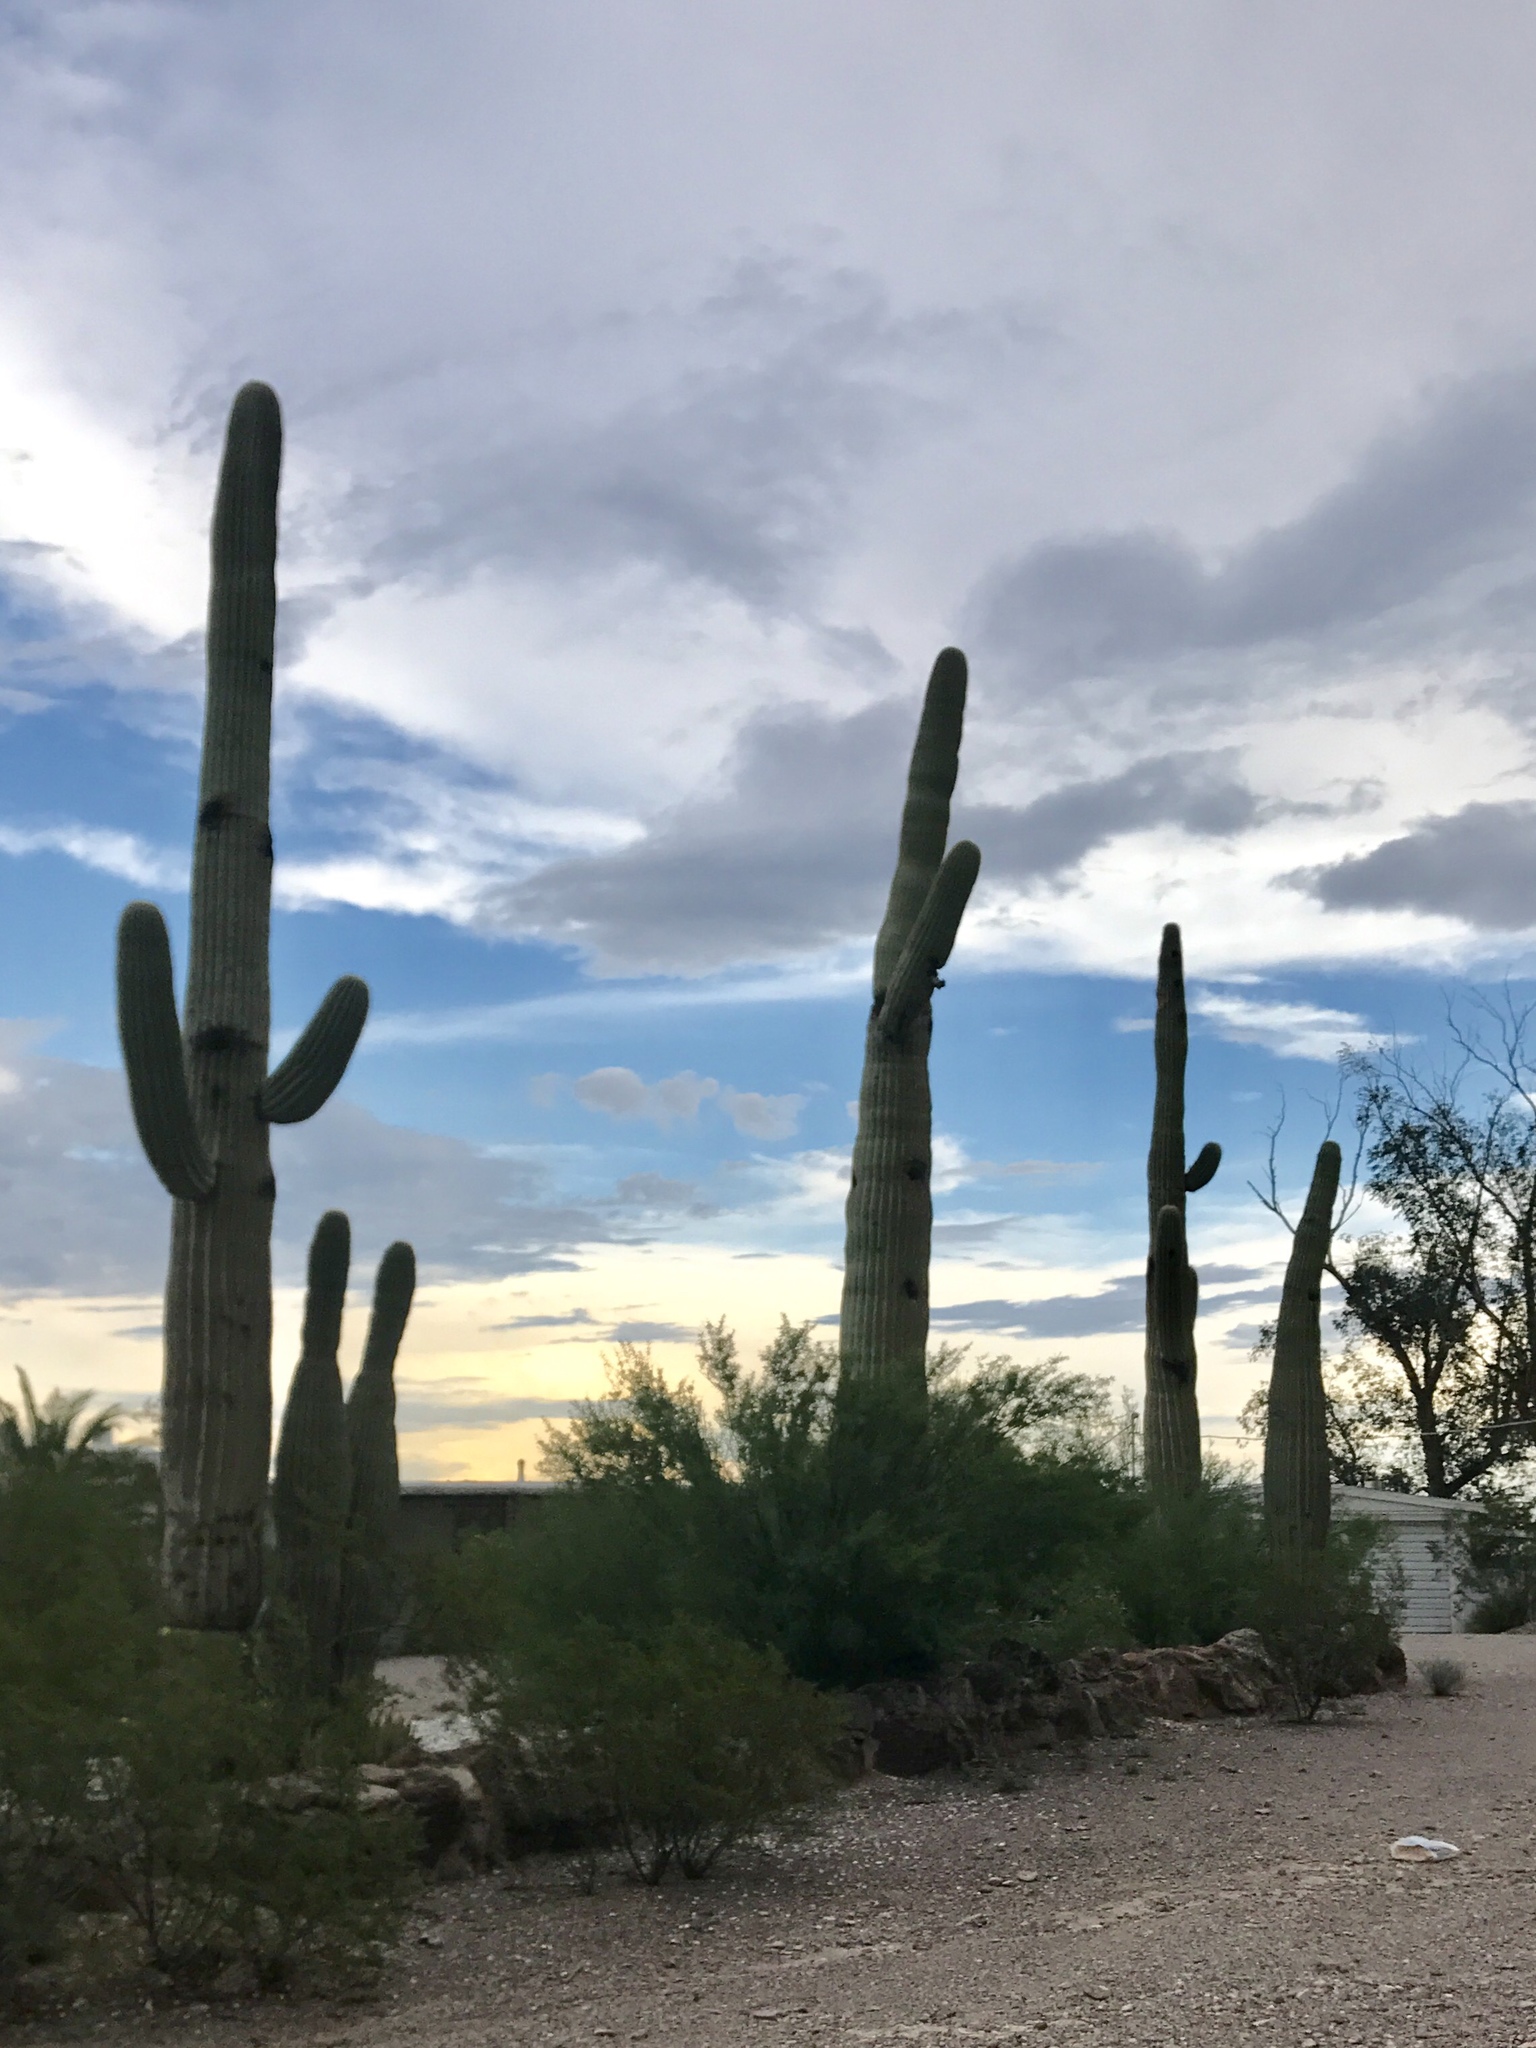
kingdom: Plantae
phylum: Tracheophyta
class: Magnoliopsida
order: Caryophyllales
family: Cactaceae
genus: Carnegiea
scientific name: Carnegiea gigantea
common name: Saguaro
